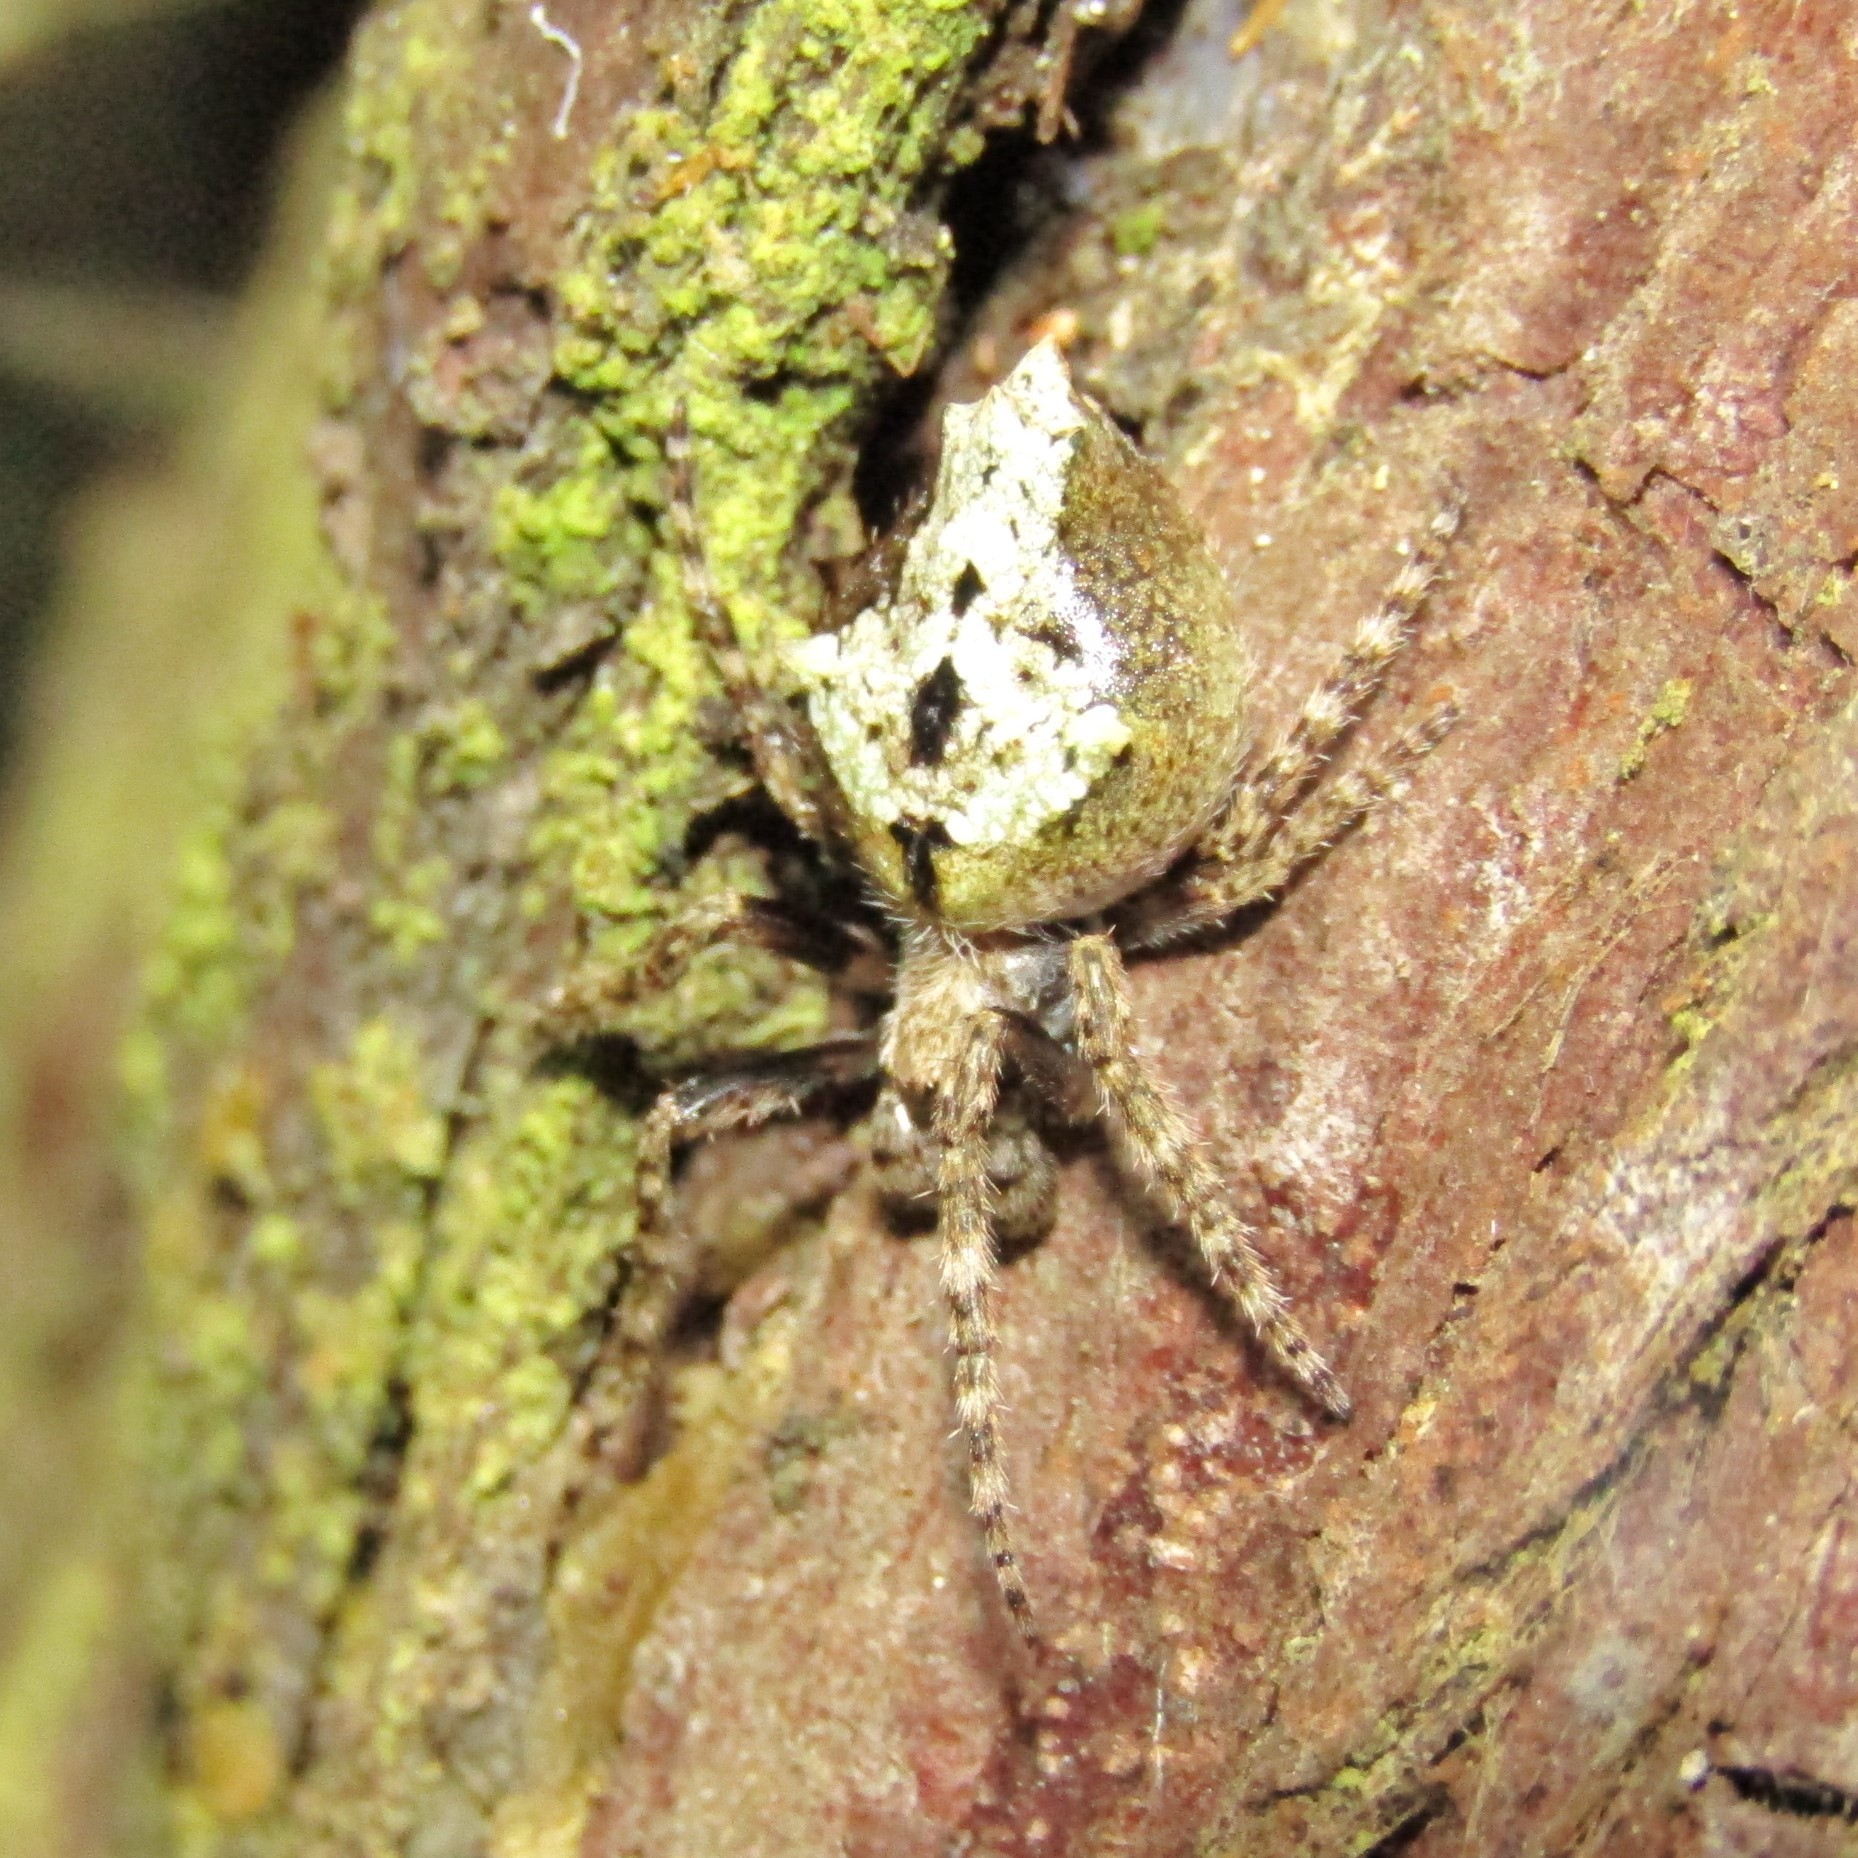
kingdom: Animalia
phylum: Arthropoda
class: Arachnida
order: Araneae
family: Araneidae
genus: Eriophora
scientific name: Eriophora pustulosa
